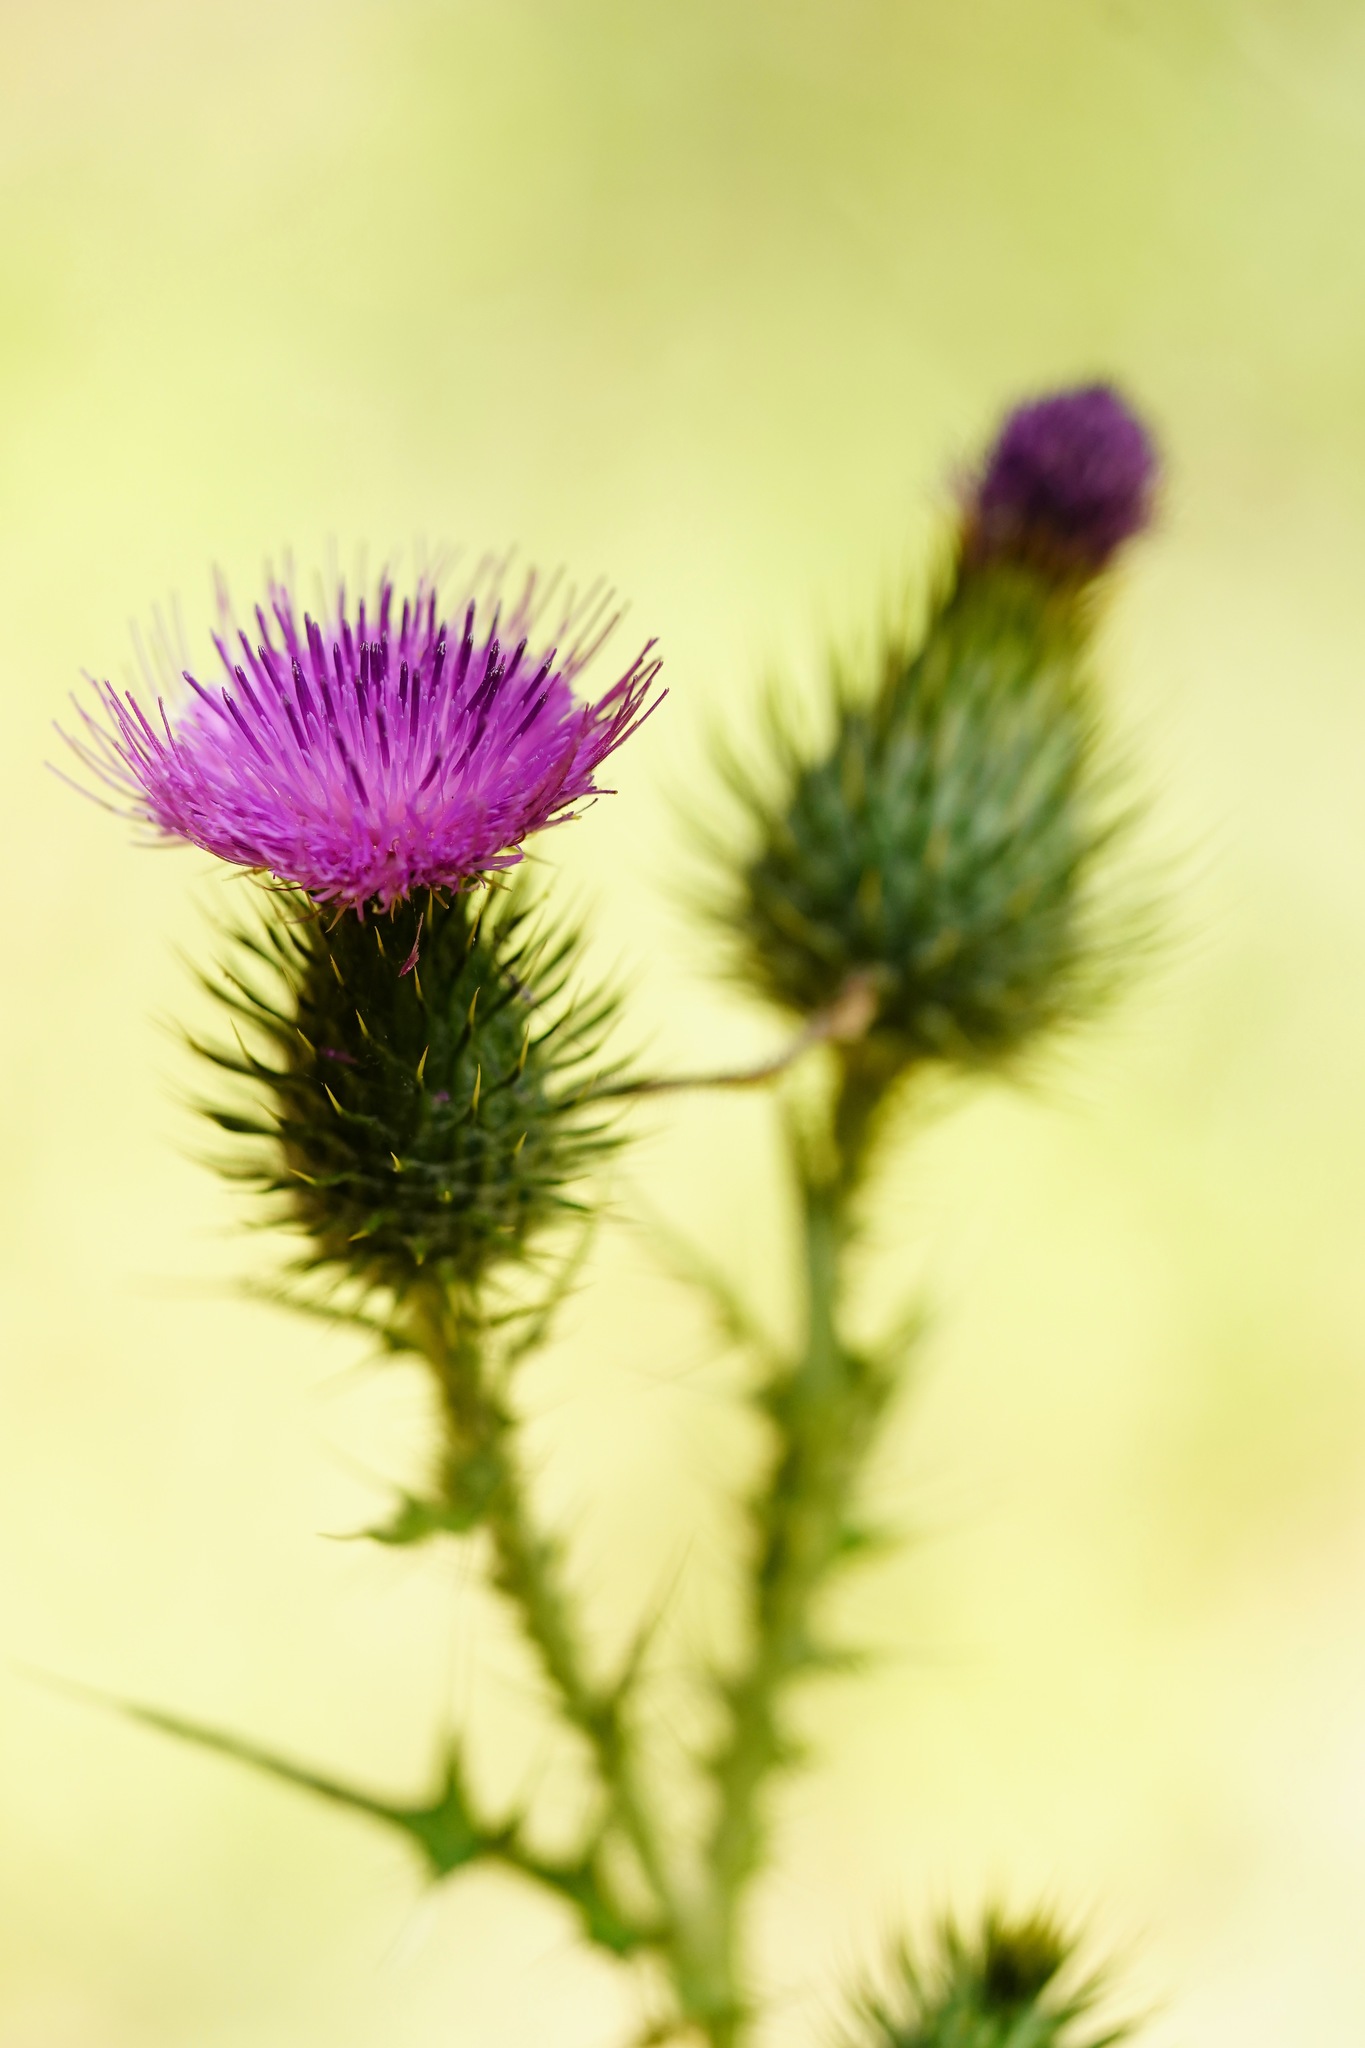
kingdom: Plantae
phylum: Tracheophyta
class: Magnoliopsida
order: Asterales
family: Asteraceae
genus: Cirsium
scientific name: Cirsium vulgare
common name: Bull thistle
